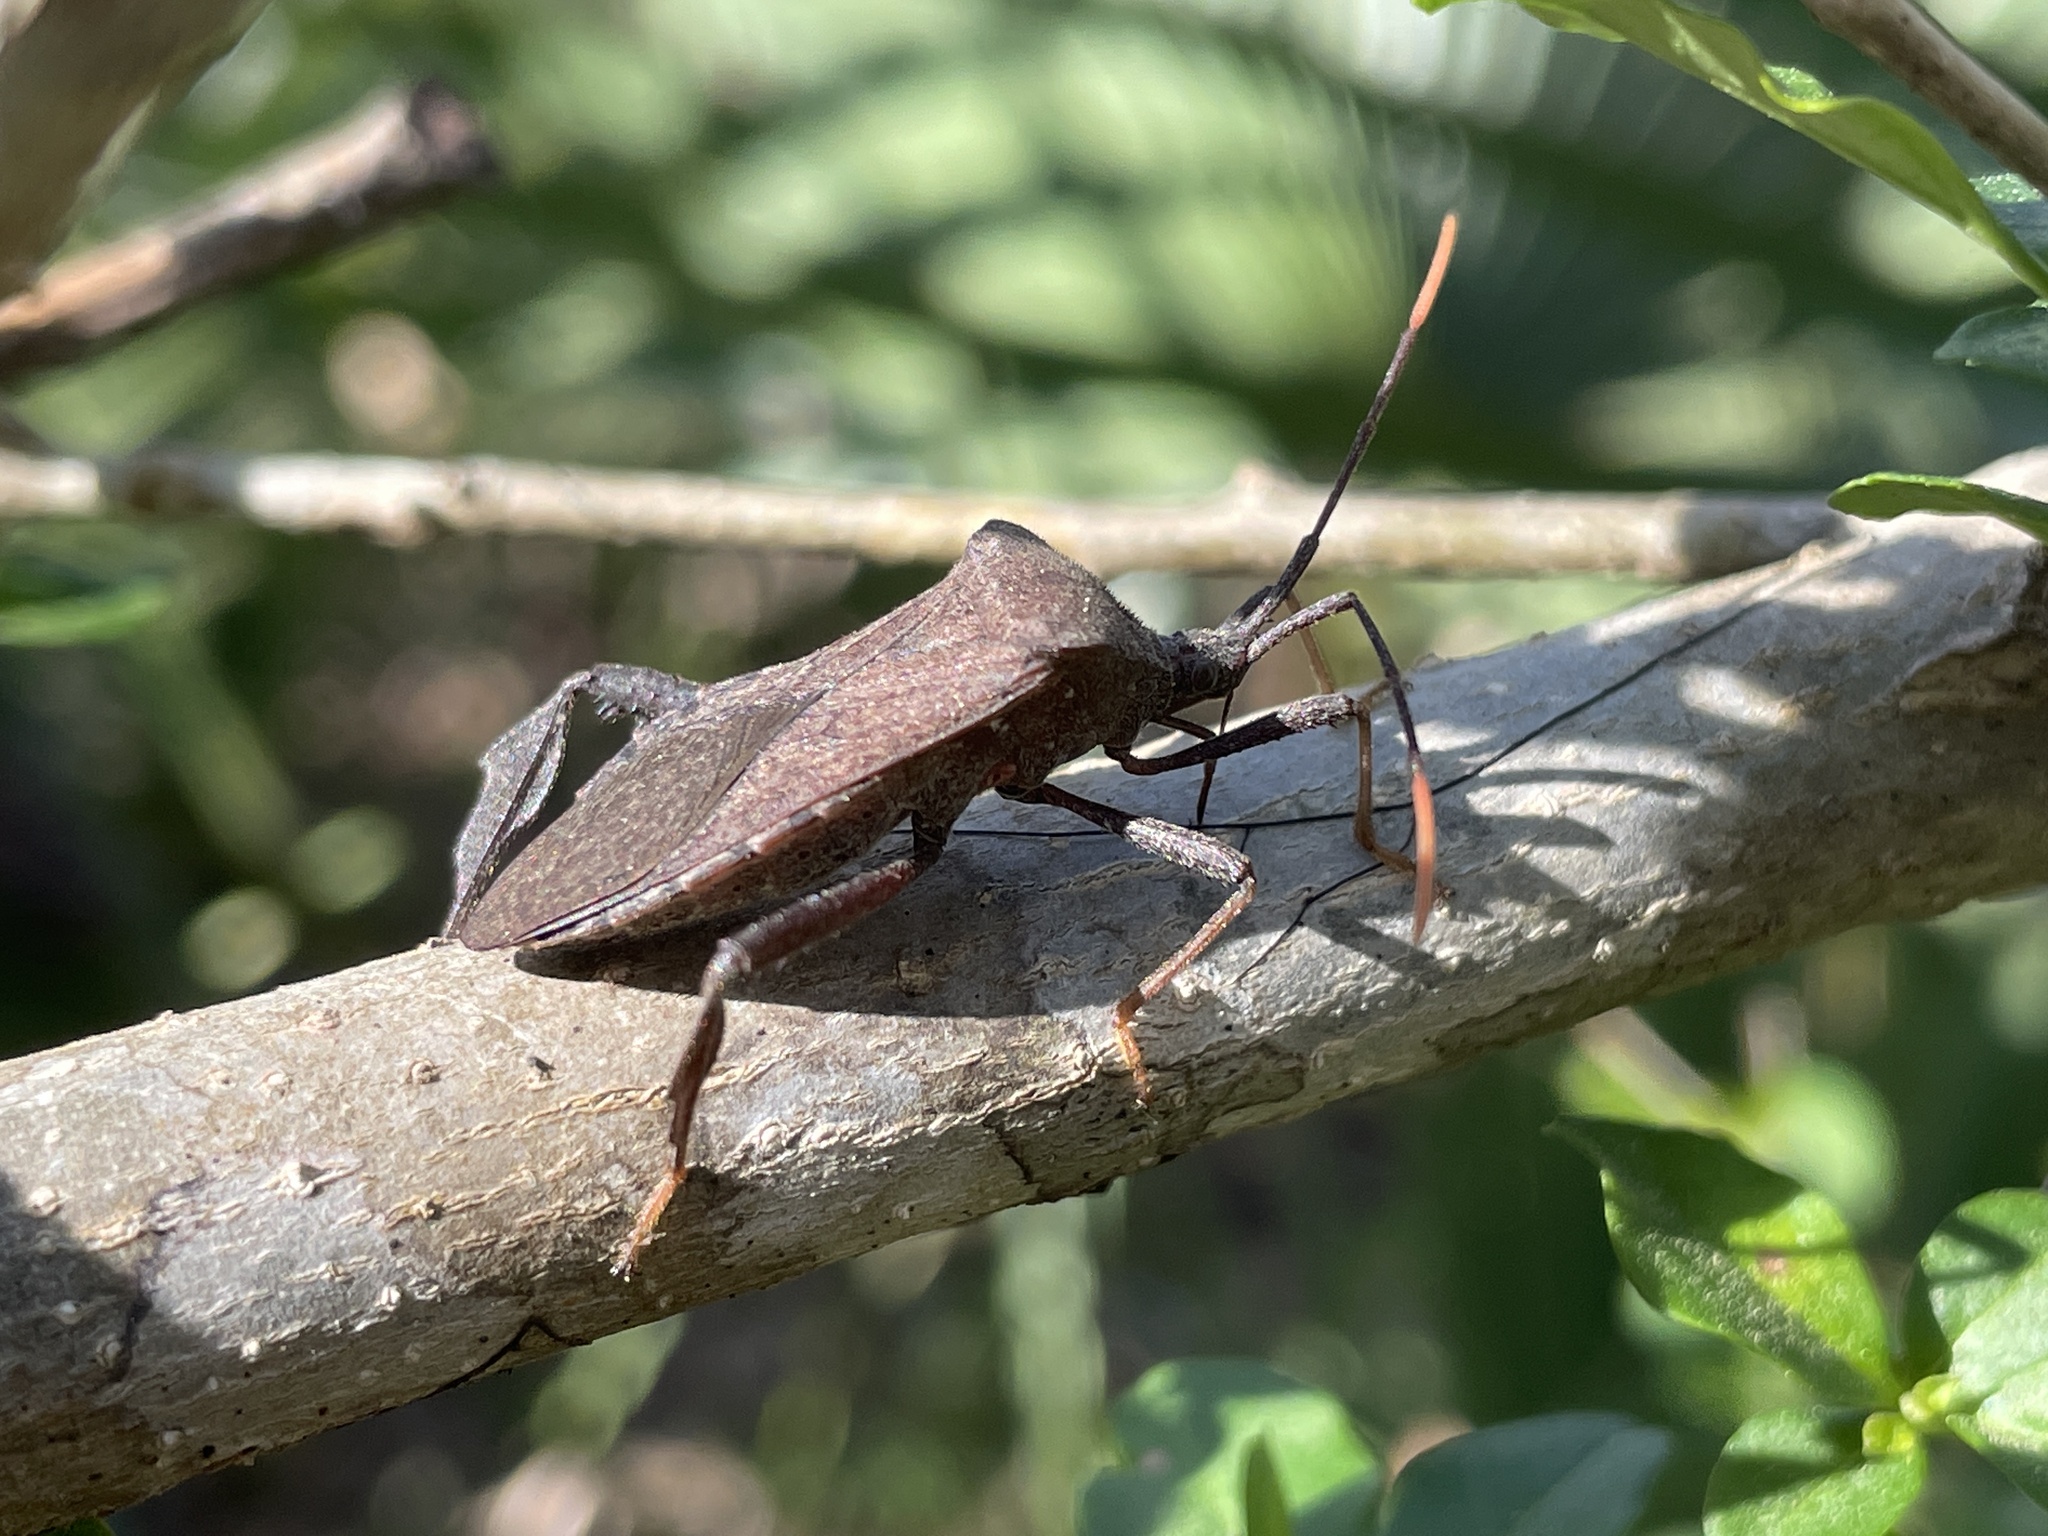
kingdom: Animalia
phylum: Arthropoda
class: Insecta
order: Hemiptera
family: Coreidae
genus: Acanthocephala
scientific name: Acanthocephala terminalis
